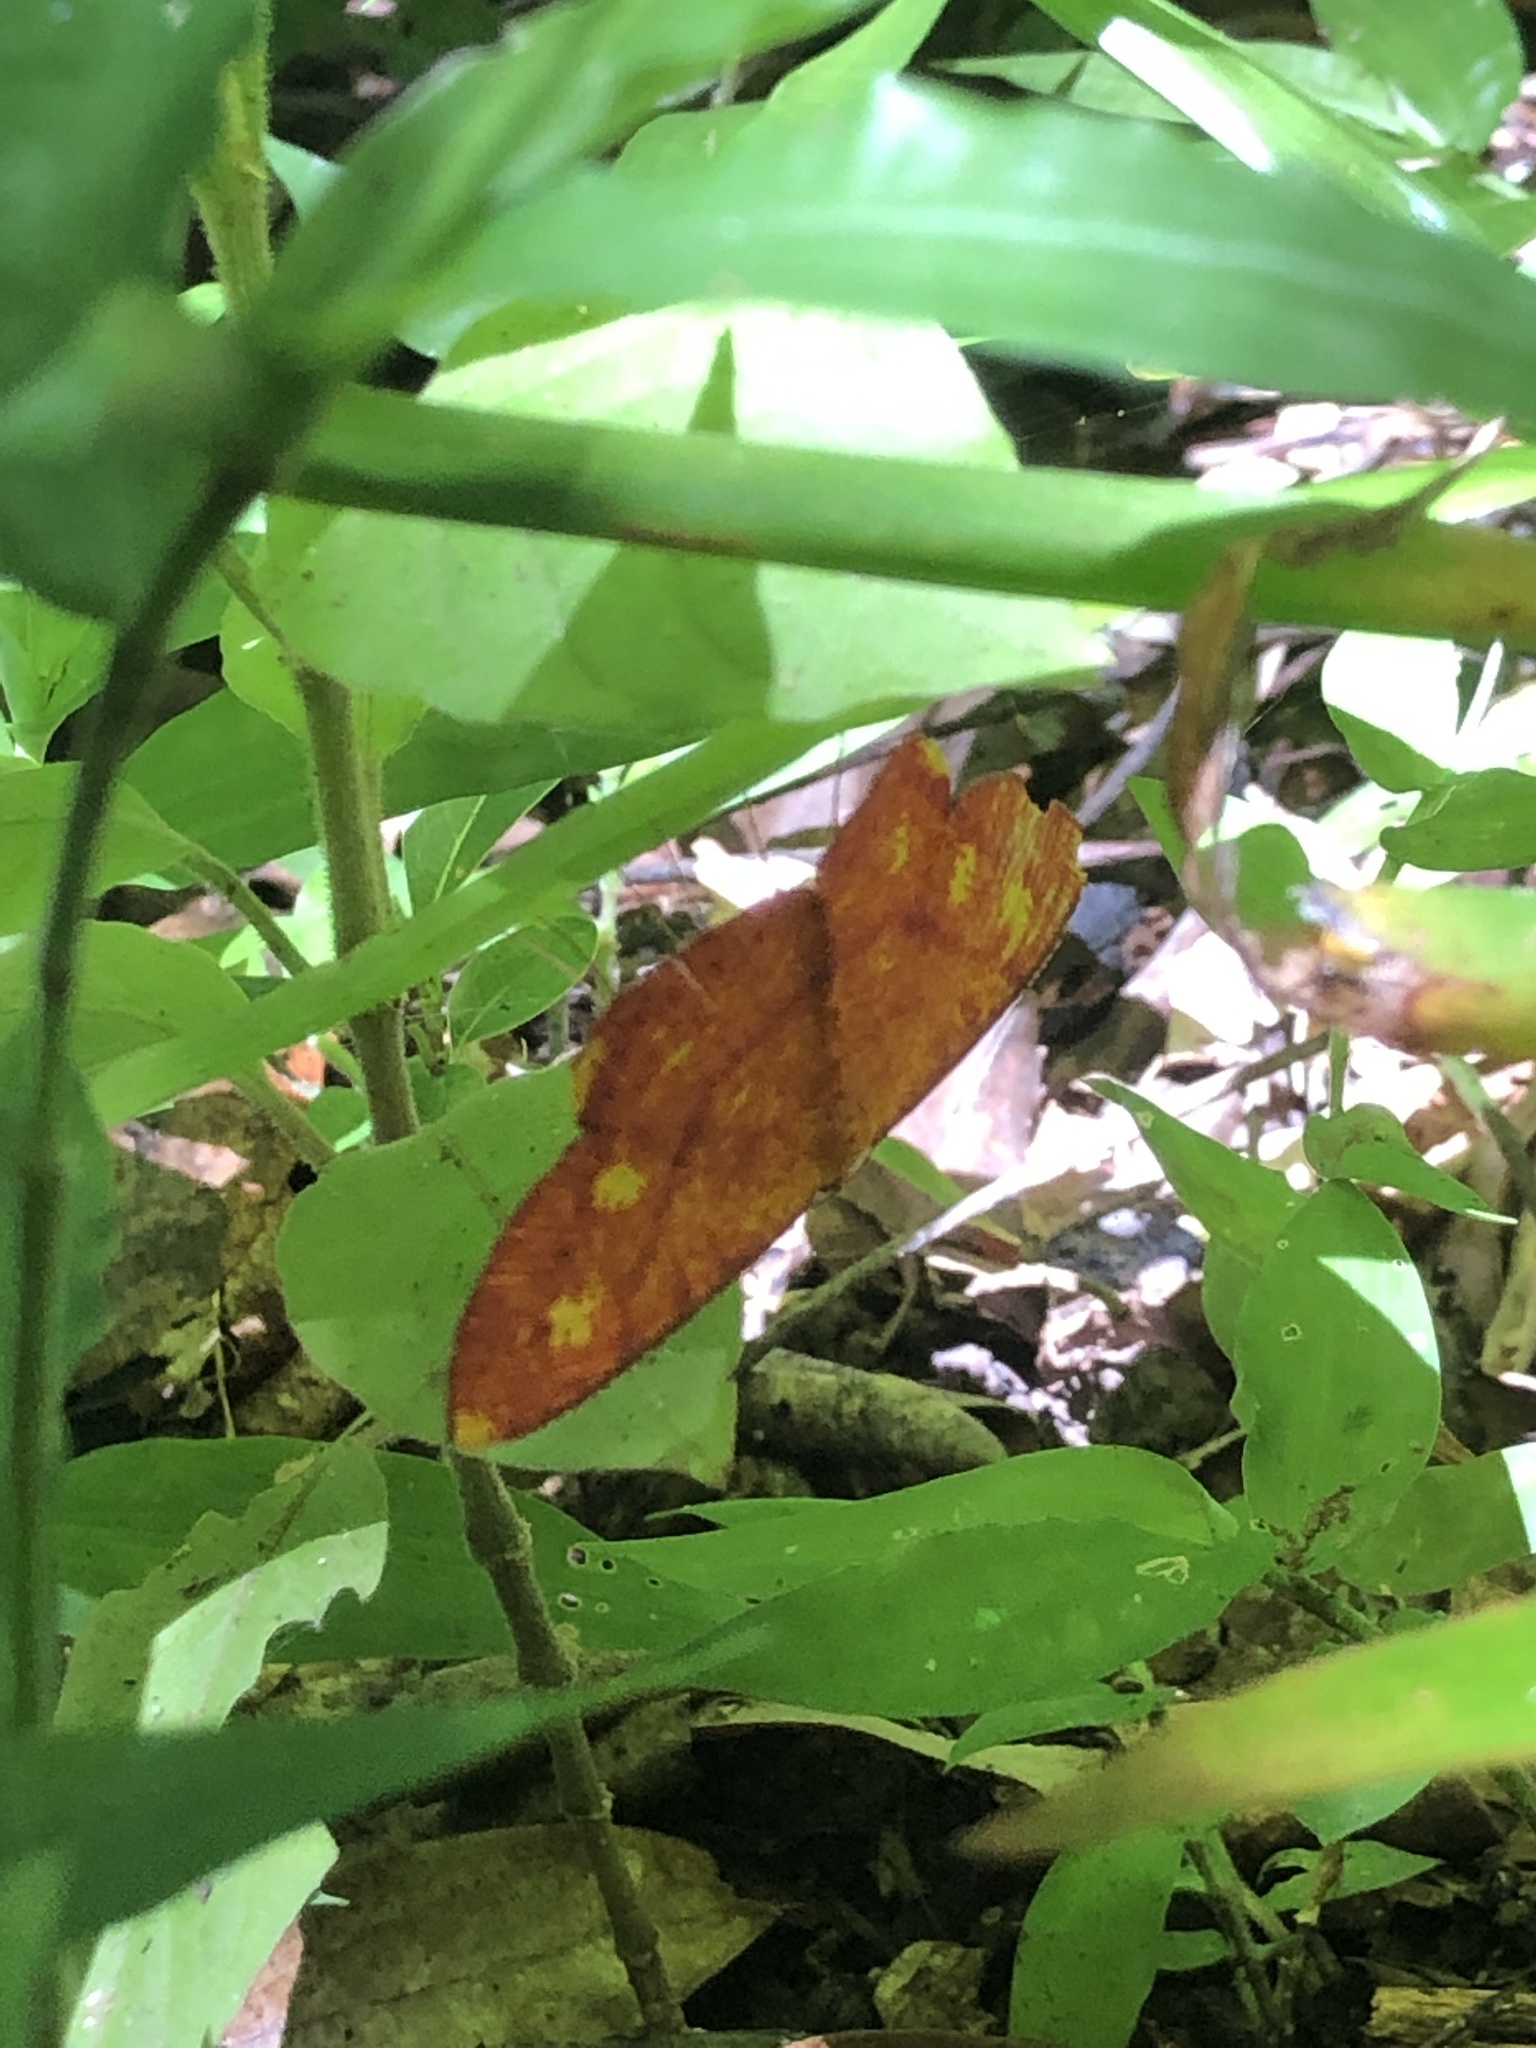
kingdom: Animalia
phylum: Arthropoda
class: Insecta
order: Lepidoptera
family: Geometridae
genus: Eumelea
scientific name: Eumelea biflavata
